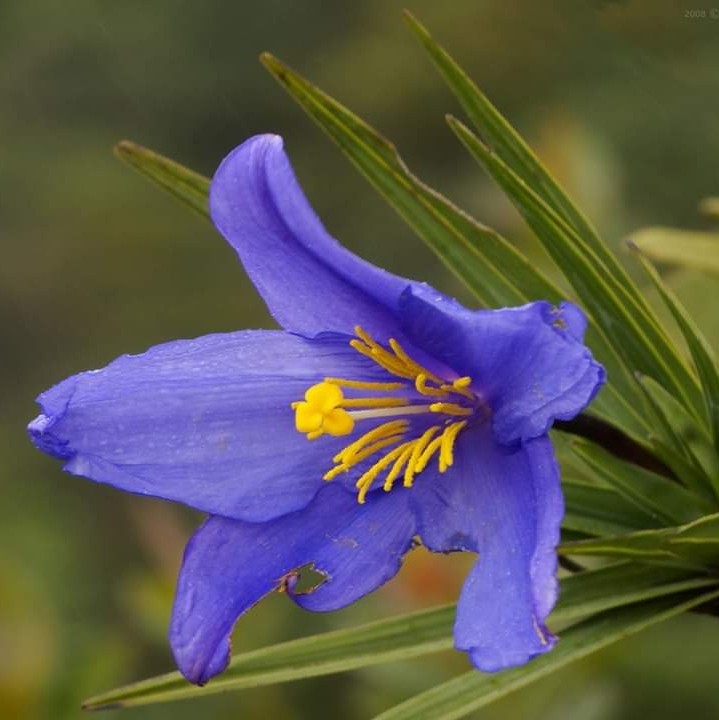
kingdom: Plantae
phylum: Tracheophyta
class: Liliopsida
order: Pandanales
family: Velloziaceae
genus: Vellozia
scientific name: Vellozia compacta
